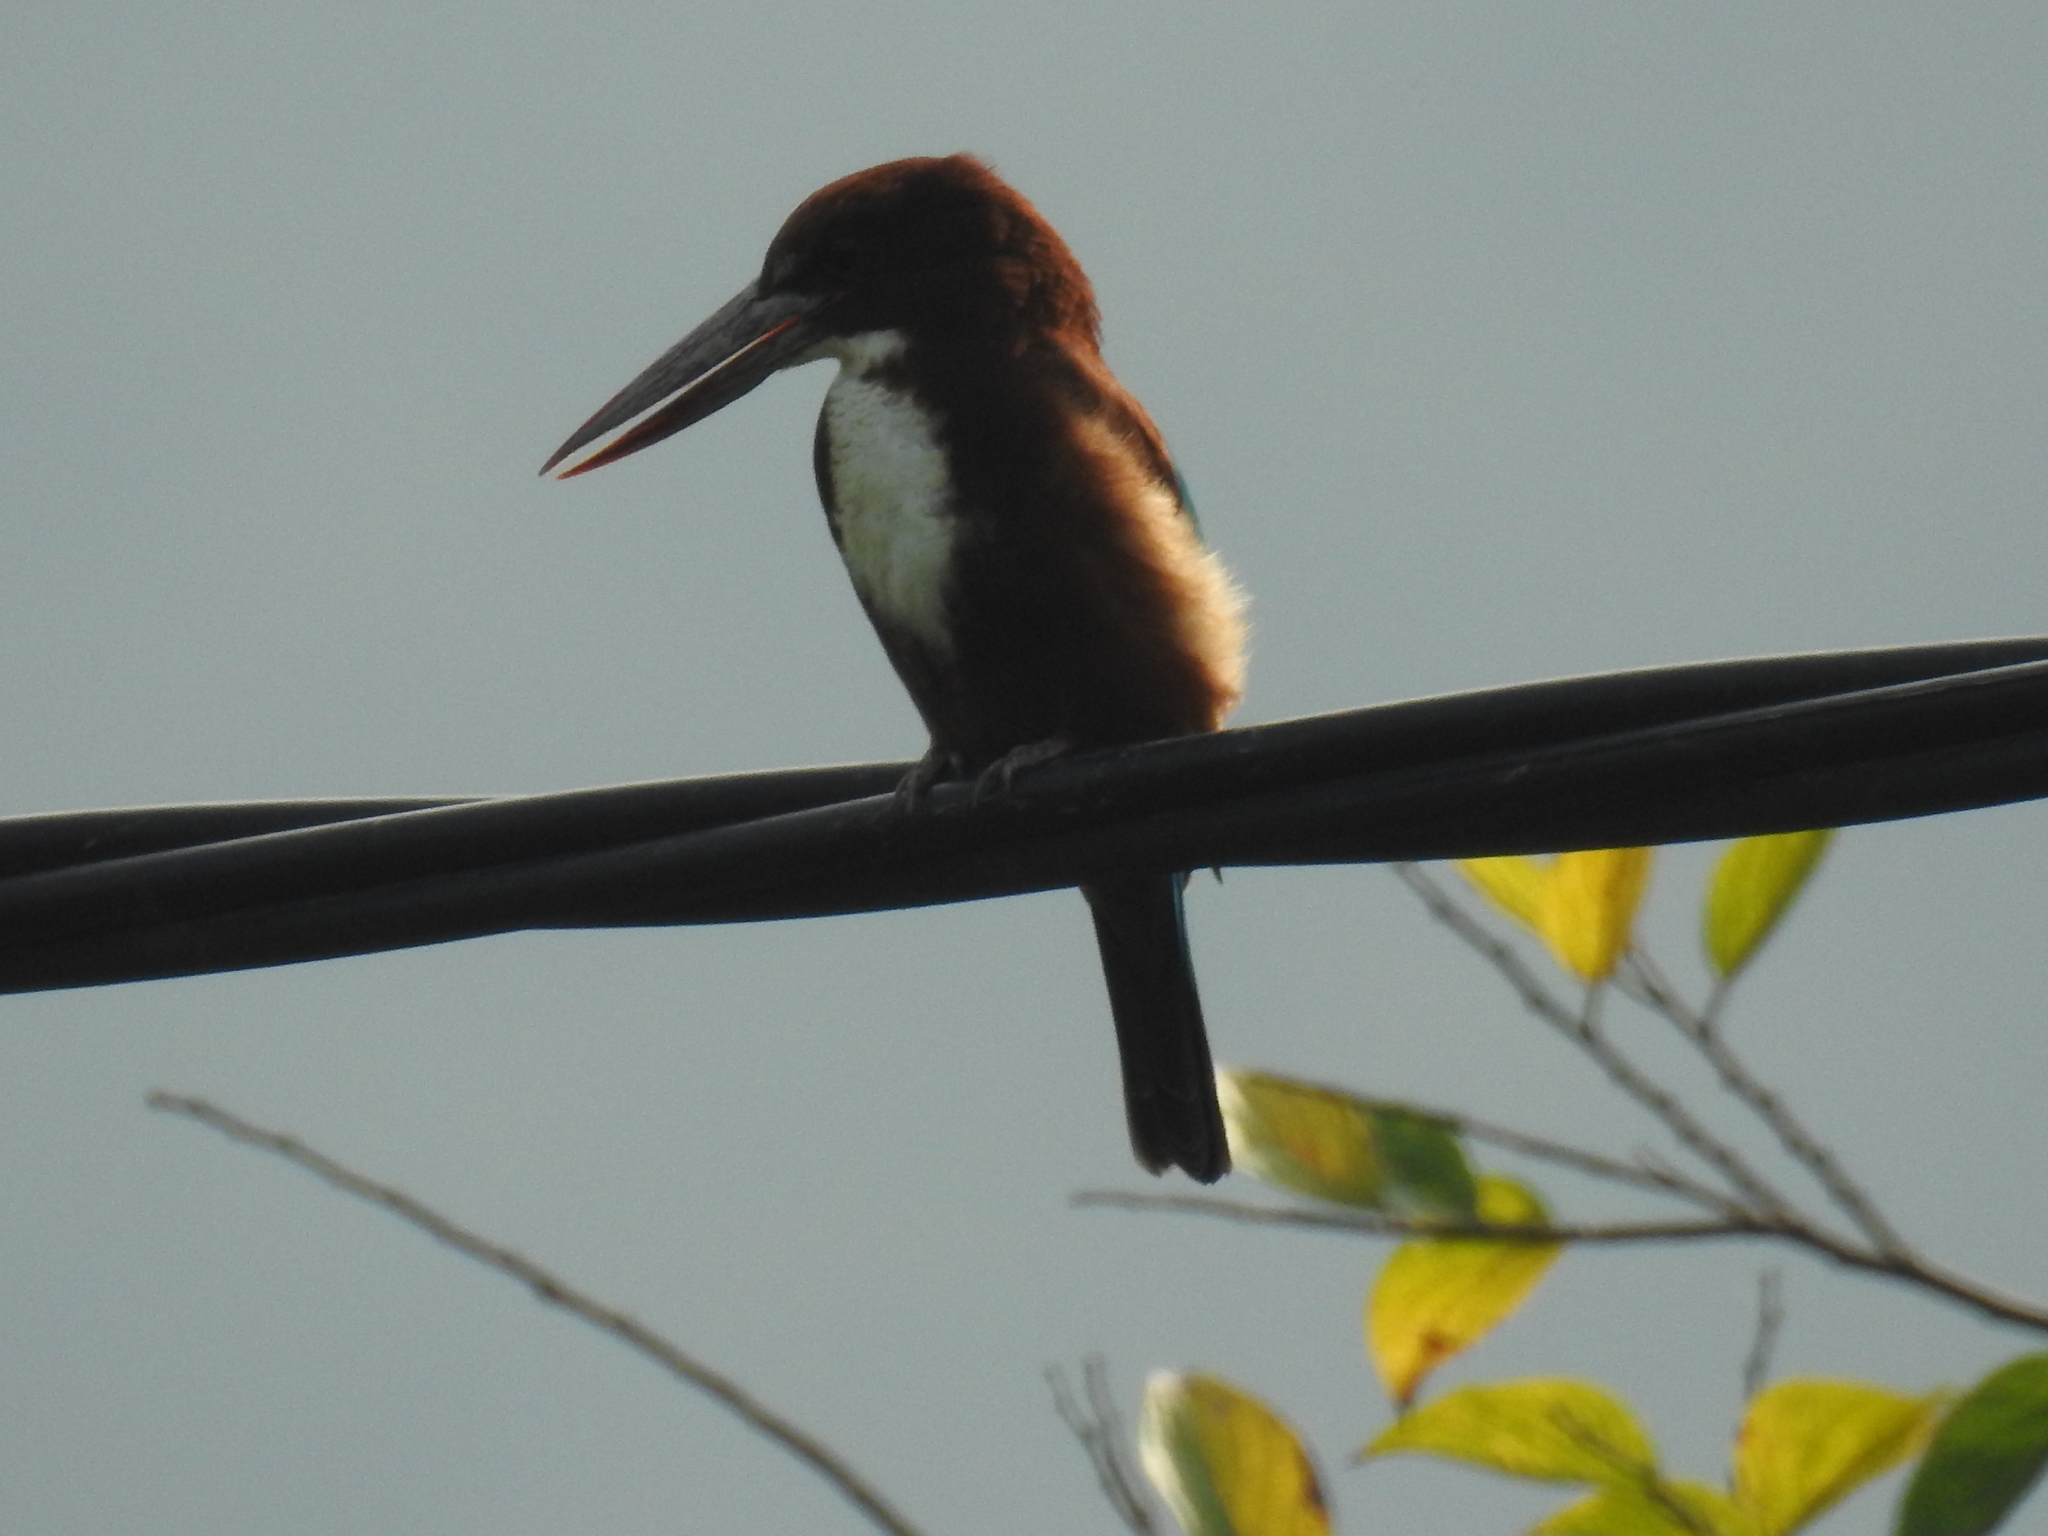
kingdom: Animalia
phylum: Chordata
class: Aves
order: Coraciiformes
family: Alcedinidae
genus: Halcyon
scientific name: Halcyon smyrnensis
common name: White-throated kingfisher
